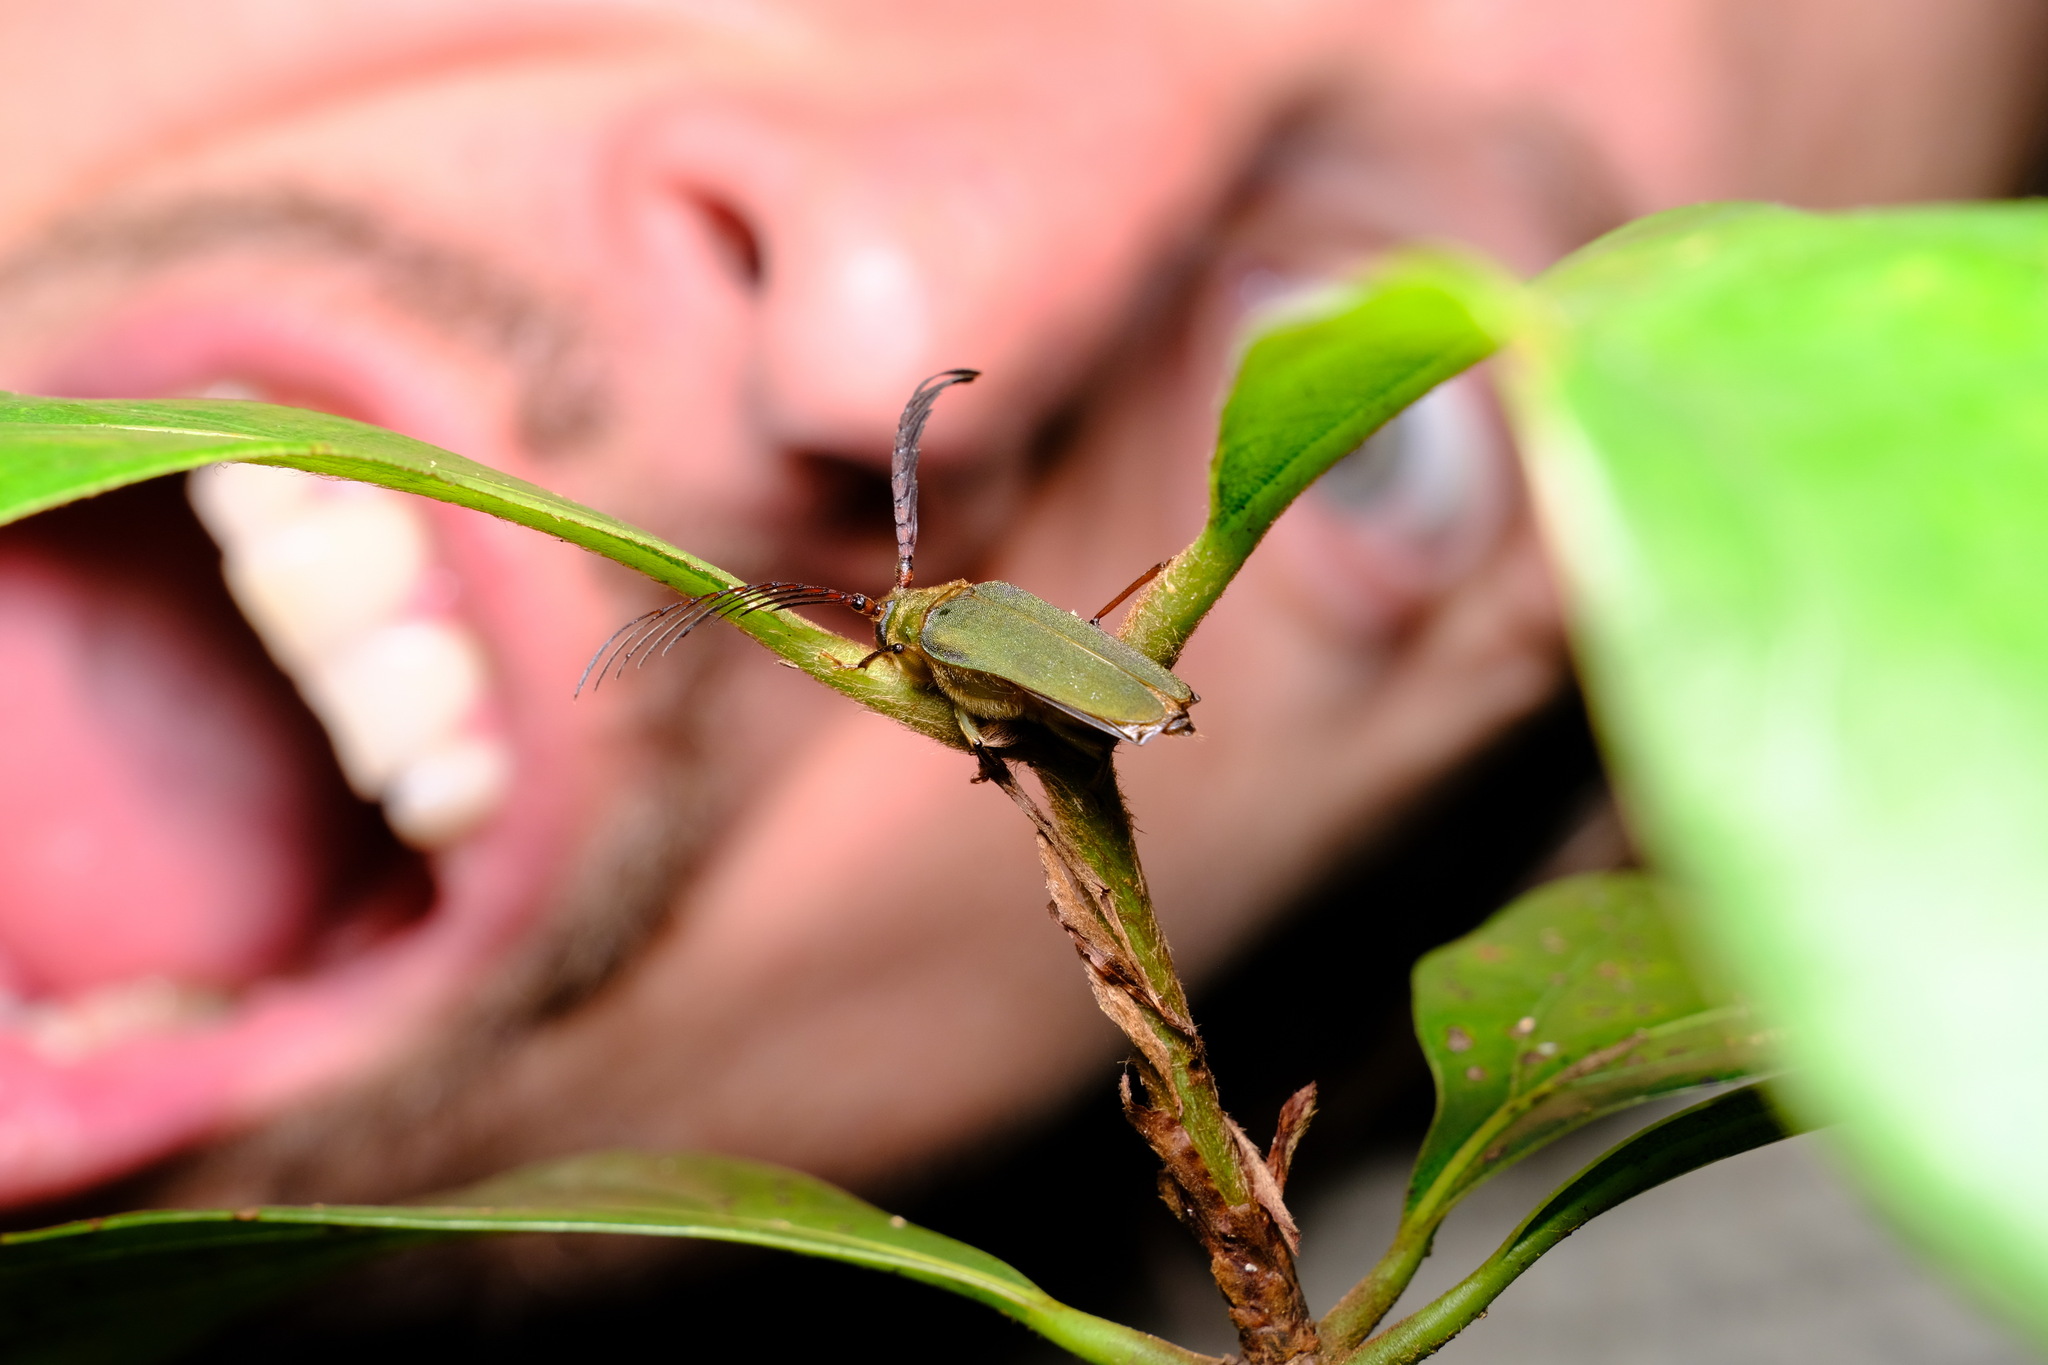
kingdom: Animalia
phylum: Arthropoda
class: Insecta
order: Coleoptera
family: Cerambycidae
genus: Rhipidocerus
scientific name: Rhipidocerus australasiae
